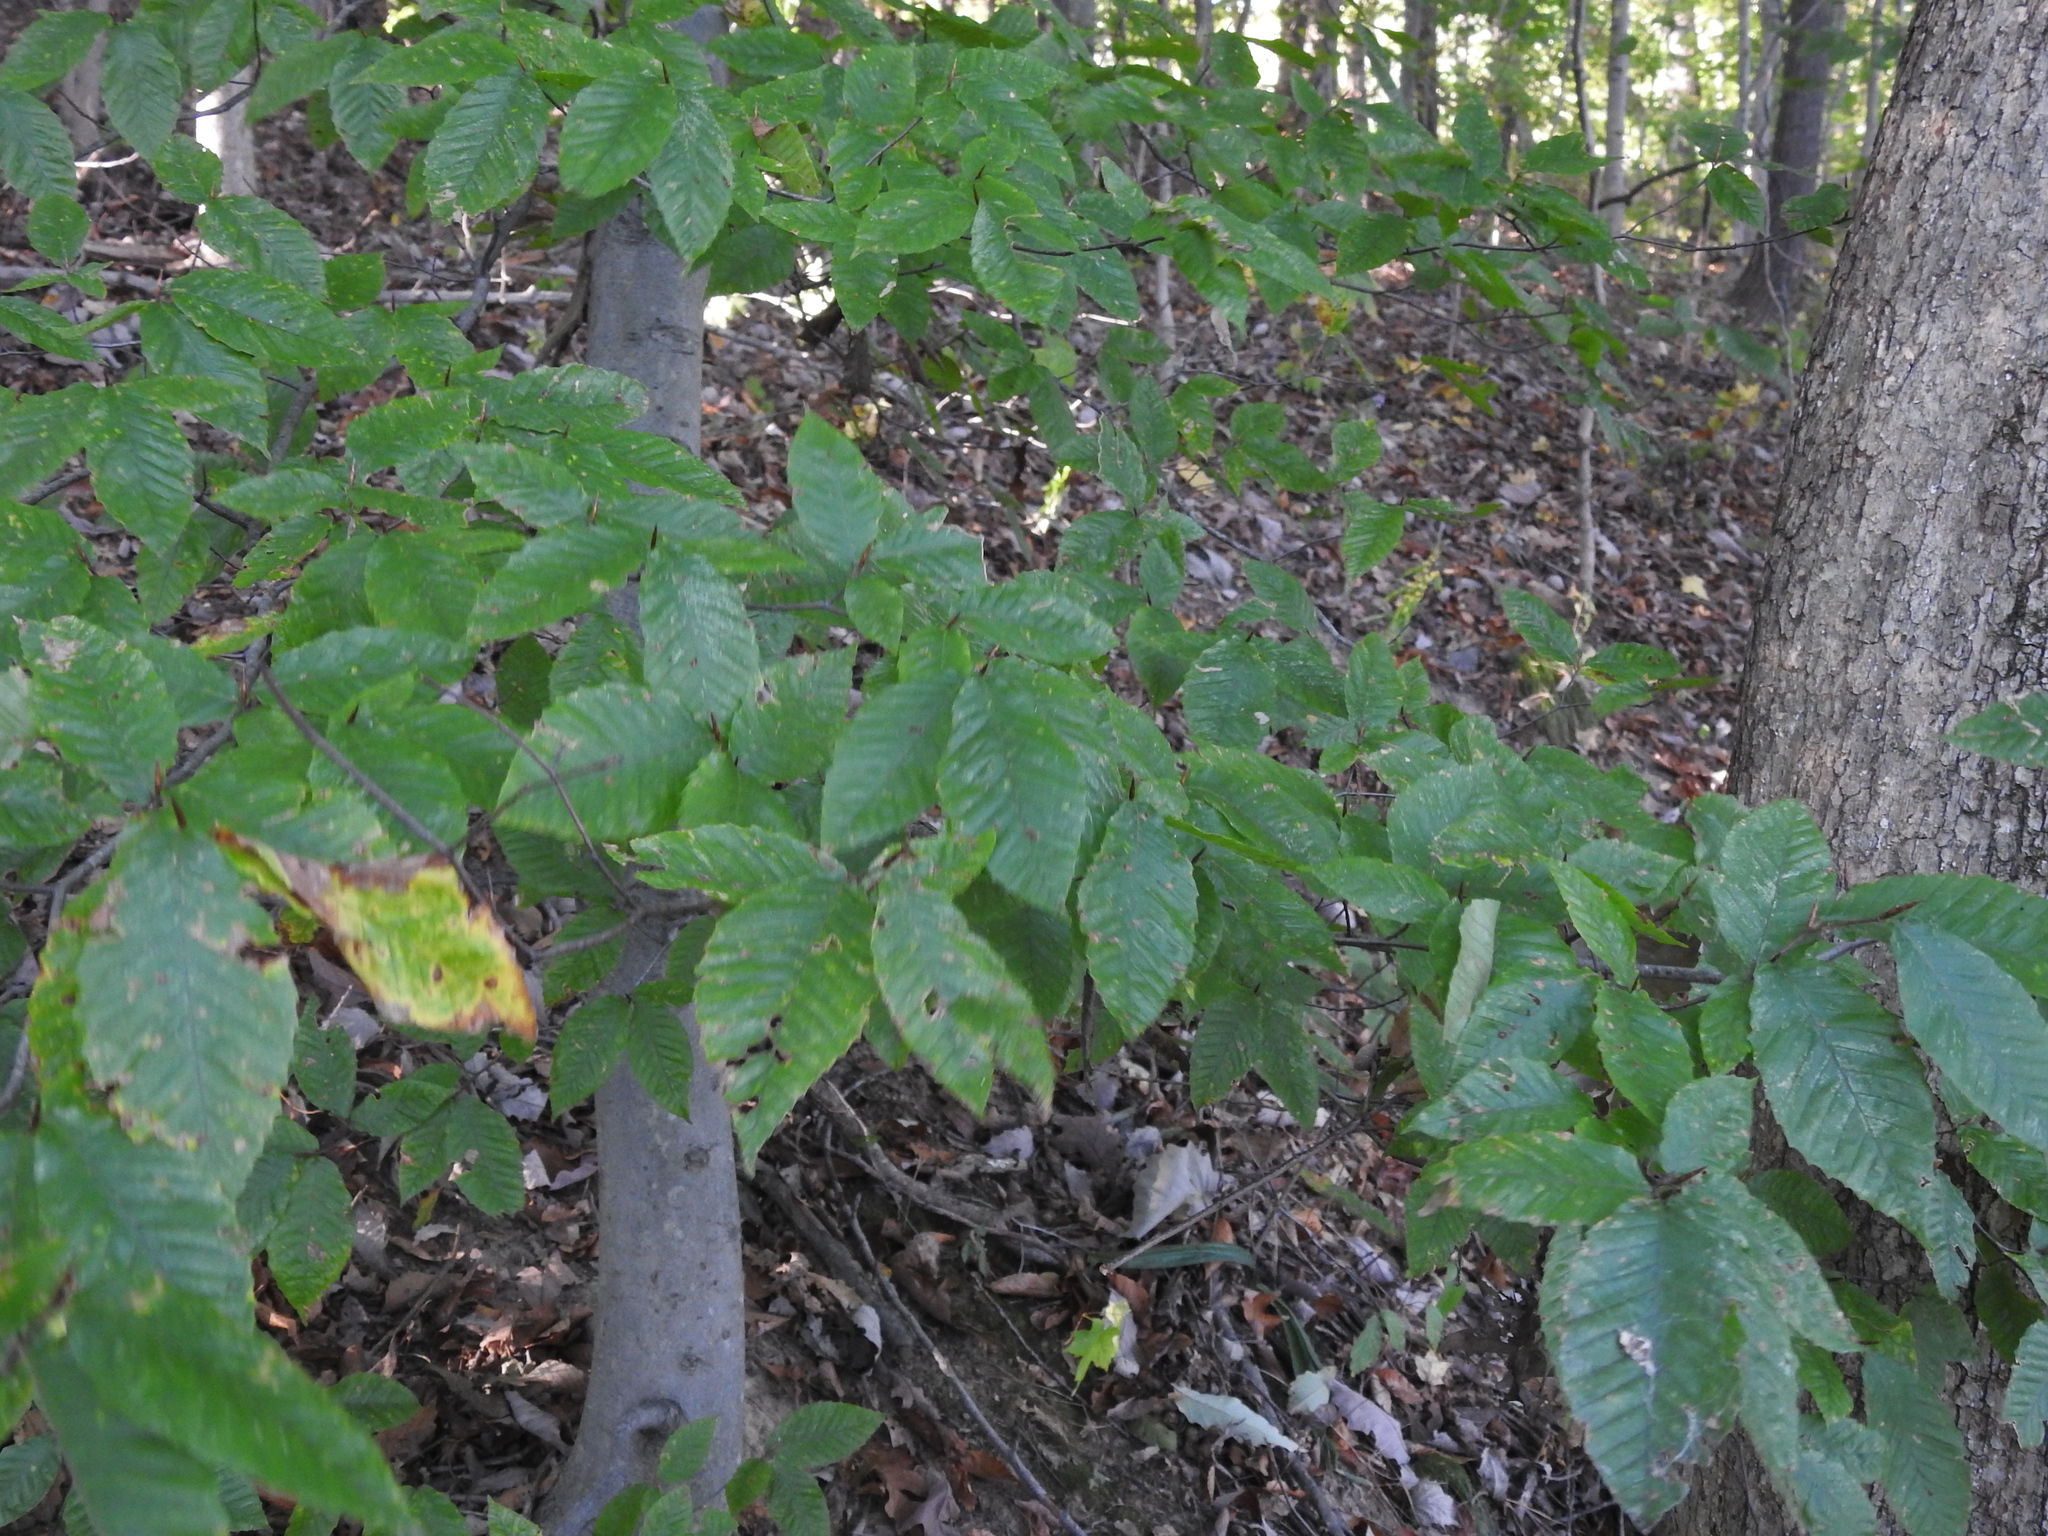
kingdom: Plantae
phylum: Tracheophyta
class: Magnoliopsida
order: Fagales
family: Fagaceae
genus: Fagus
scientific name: Fagus grandifolia
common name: American beech
